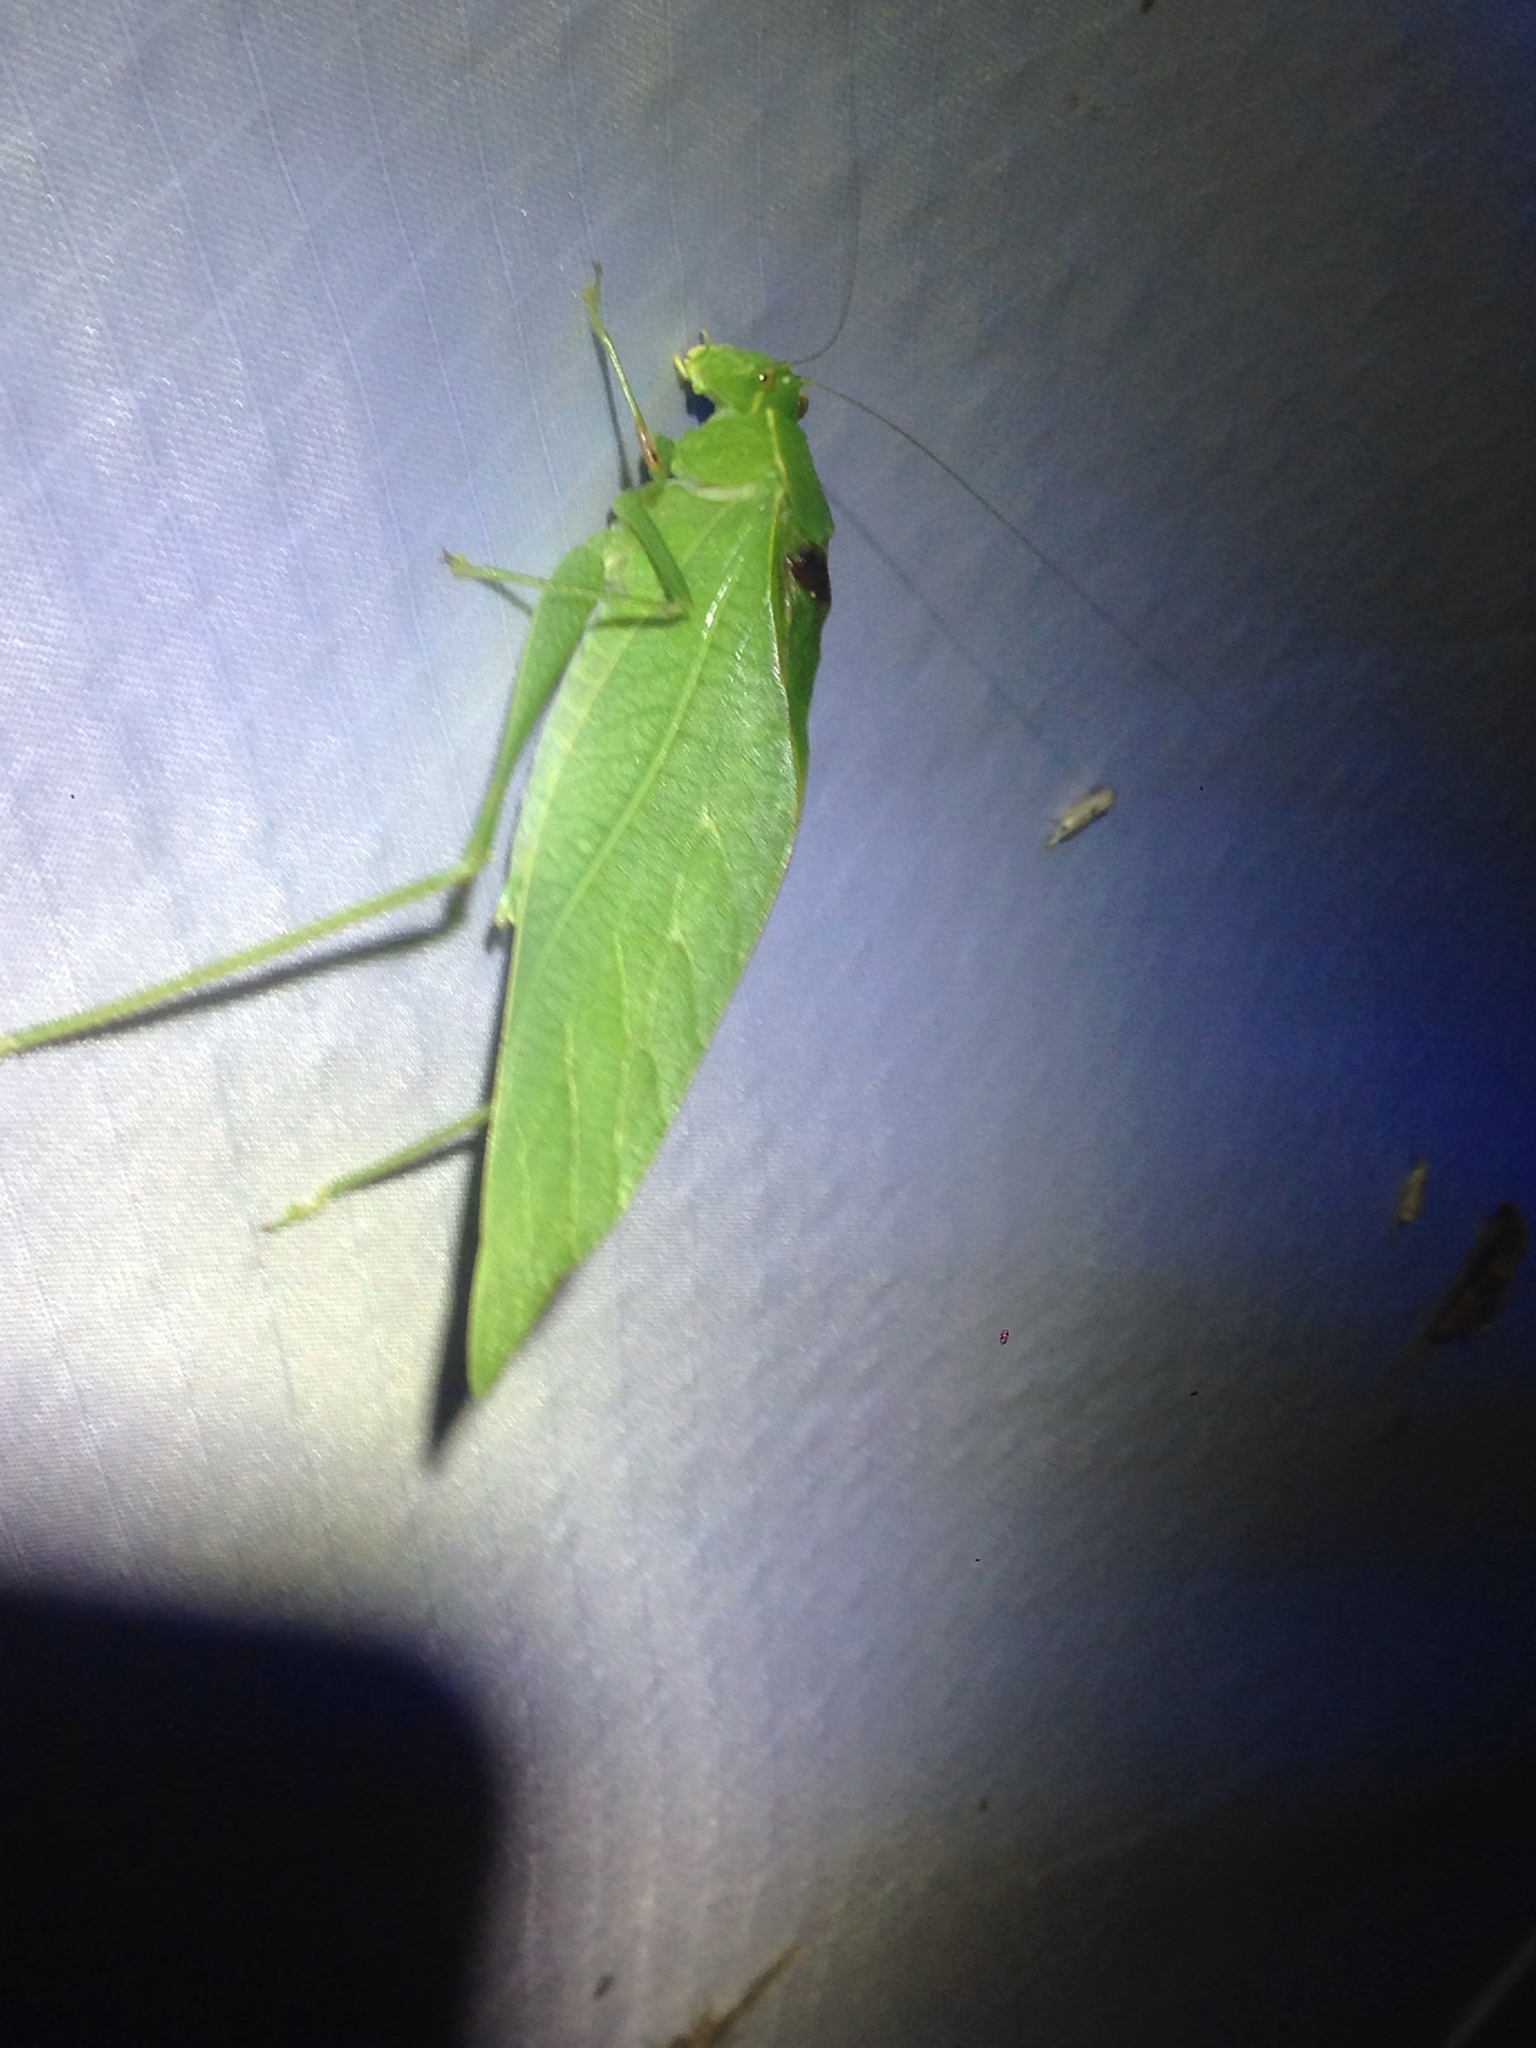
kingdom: Animalia
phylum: Arthropoda
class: Insecta
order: Orthoptera
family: Tettigoniidae
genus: Microcentrum
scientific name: Microcentrum retinerve
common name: Angular-winged katydid
